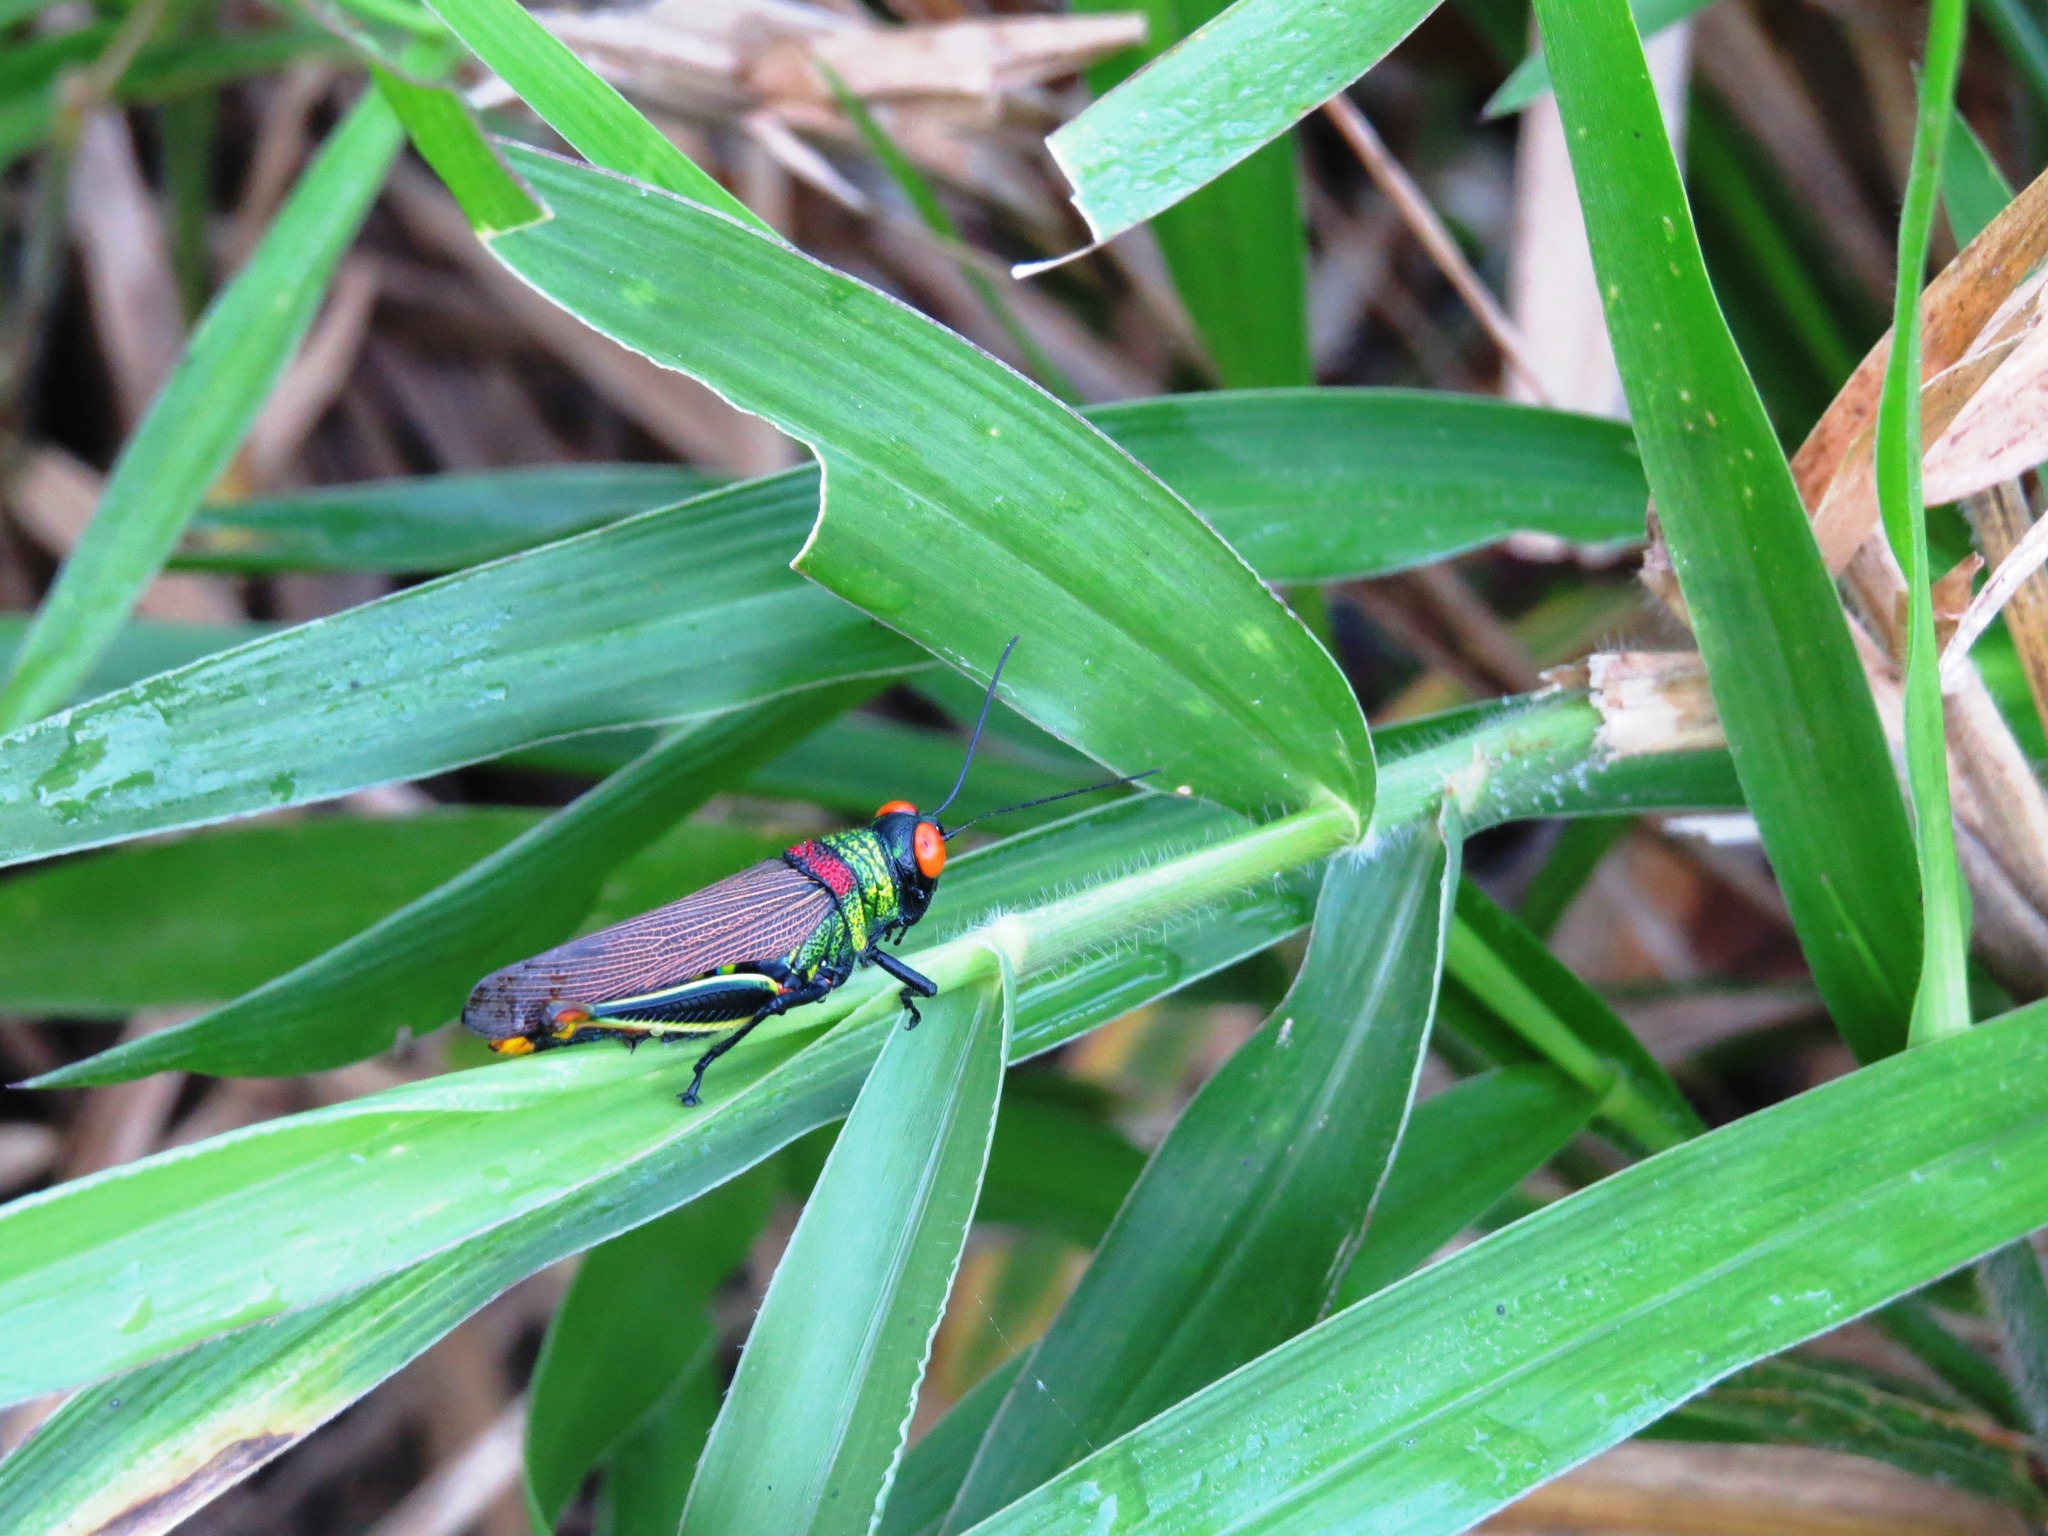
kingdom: Animalia
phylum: Arthropoda
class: Insecta
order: Orthoptera
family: Acrididae
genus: Coscineuta
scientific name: Coscineuta coxalis
